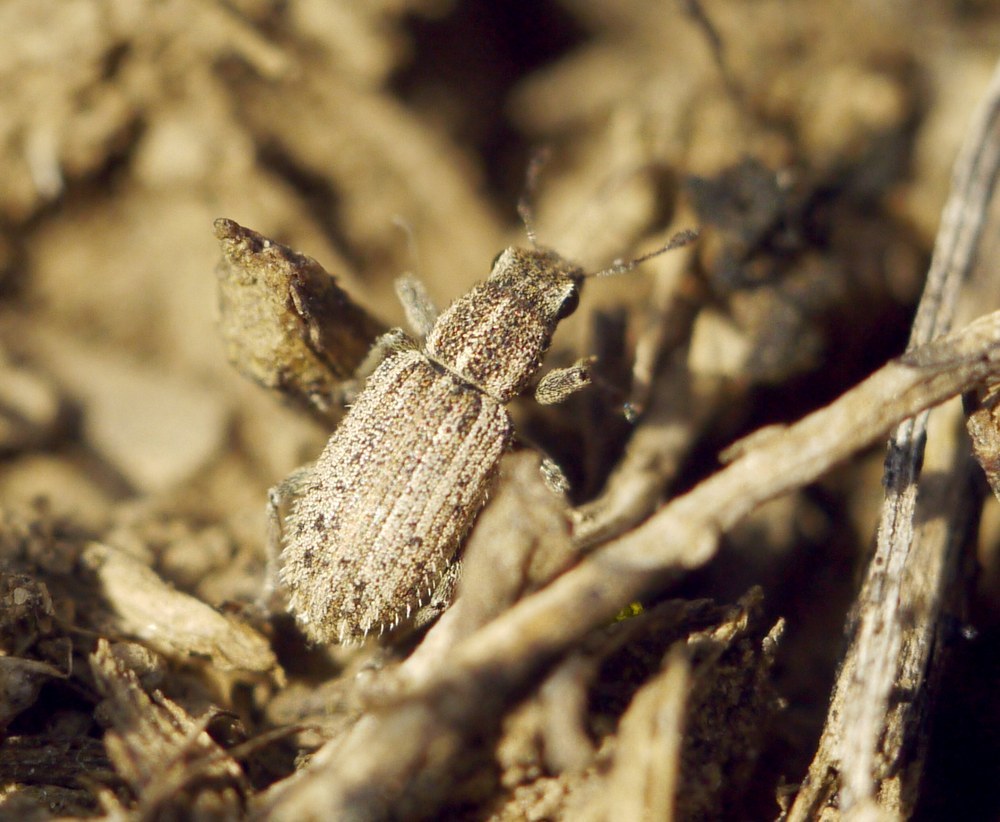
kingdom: Animalia
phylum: Arthropoda
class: Insecta
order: Coleoptera
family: Curculionidae
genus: Sitona
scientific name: Sitona macularius
